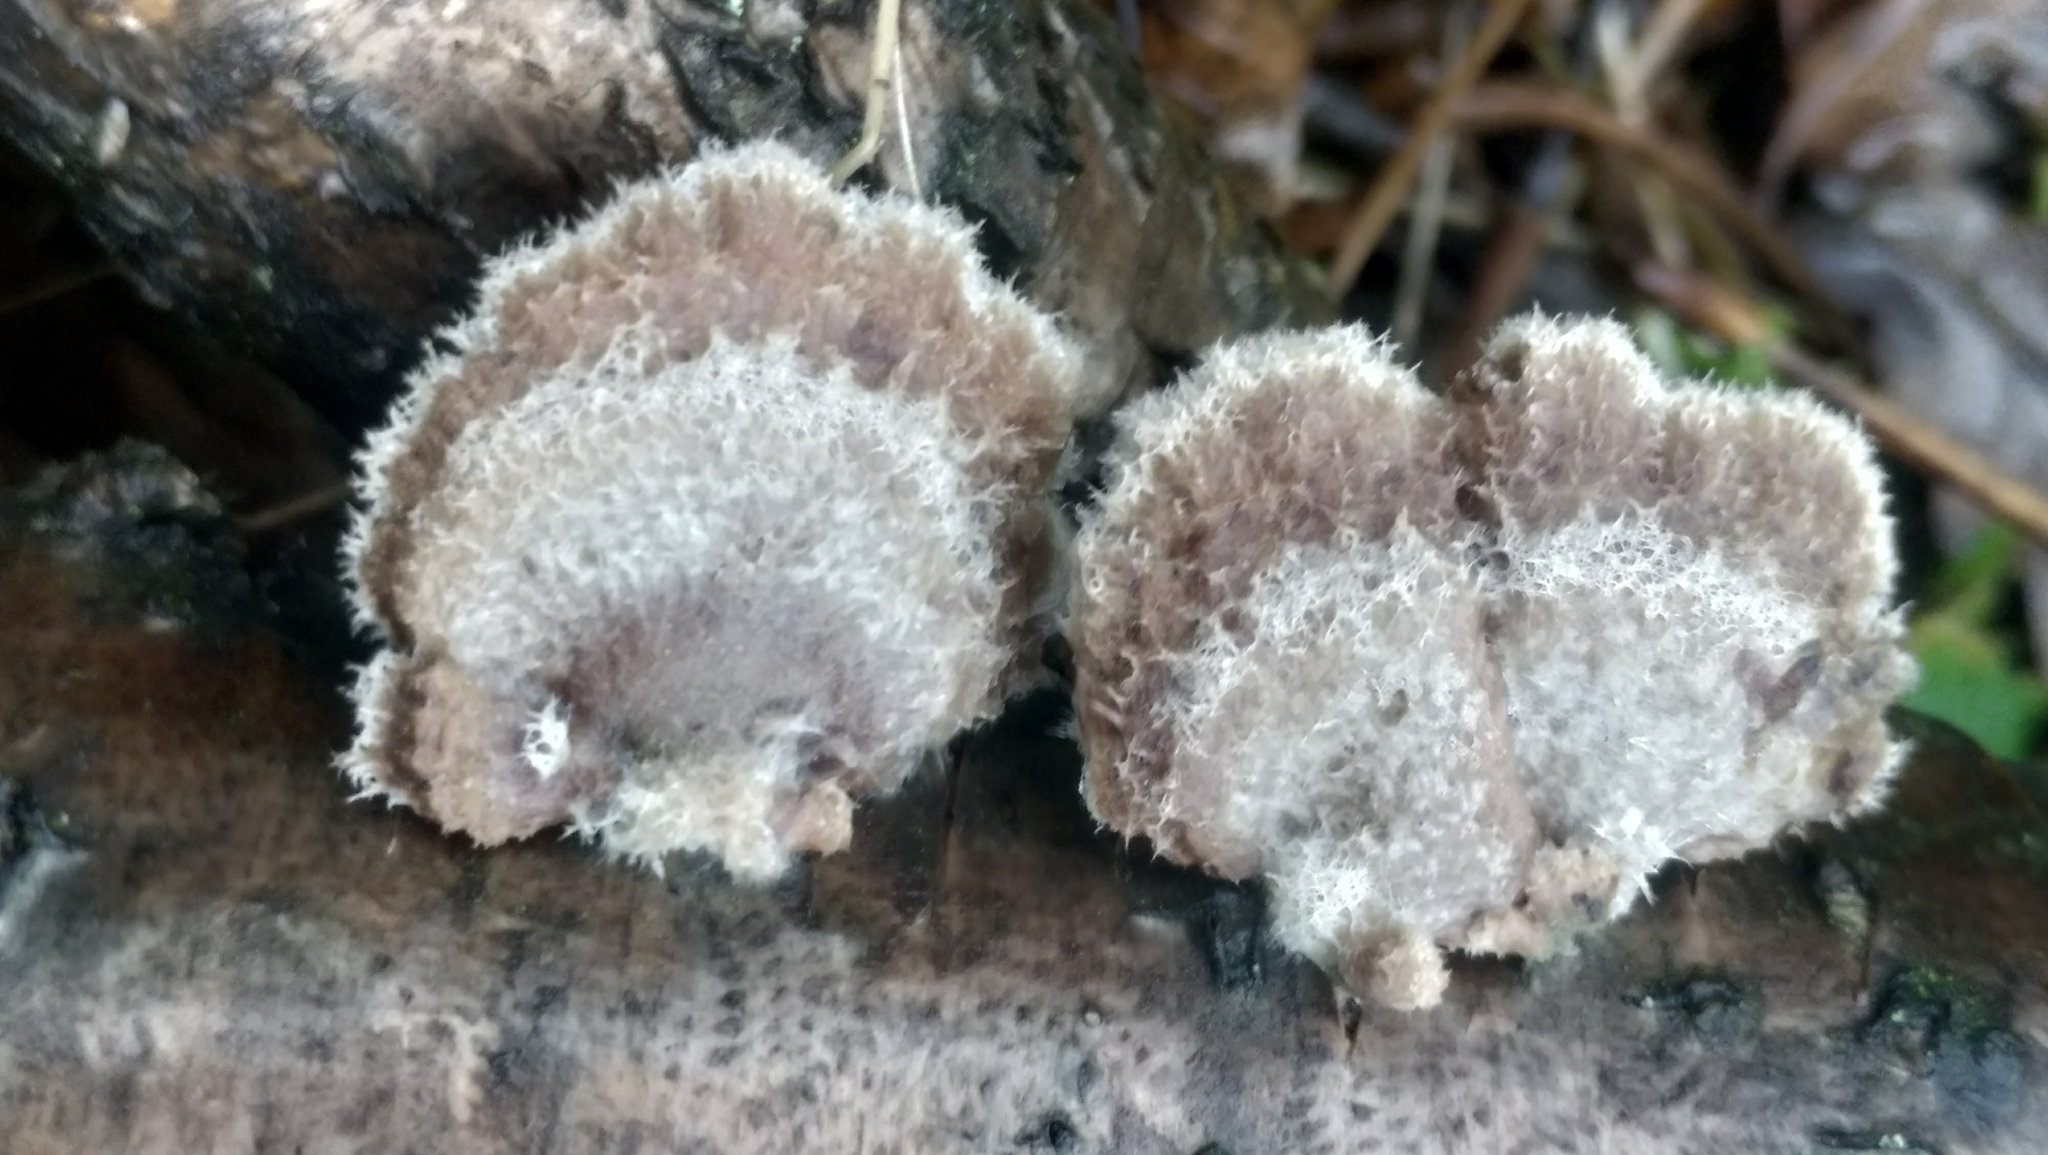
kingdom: Fungi
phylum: Basidiomycota
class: Agaricomycetes
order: Agaricales
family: Schizophyllaceae
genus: Schizophyllum
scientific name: Schizophyllum commune
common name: Common porecrust
